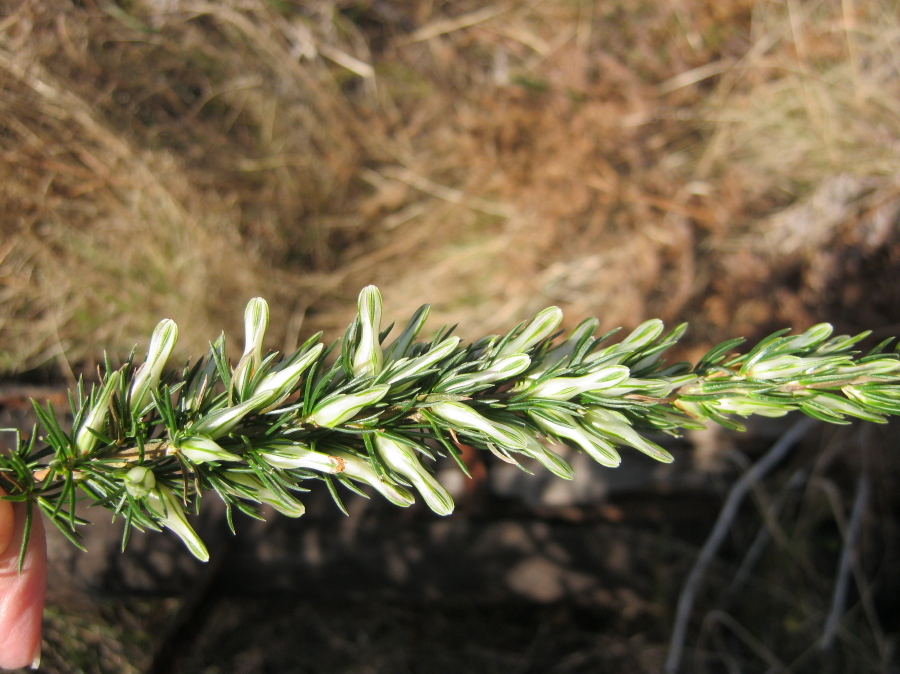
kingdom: Plantae
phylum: Tracheophyta
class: Magnoliopsida
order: Ericales
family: Ericaceae
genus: Erica
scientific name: Erica nabea
